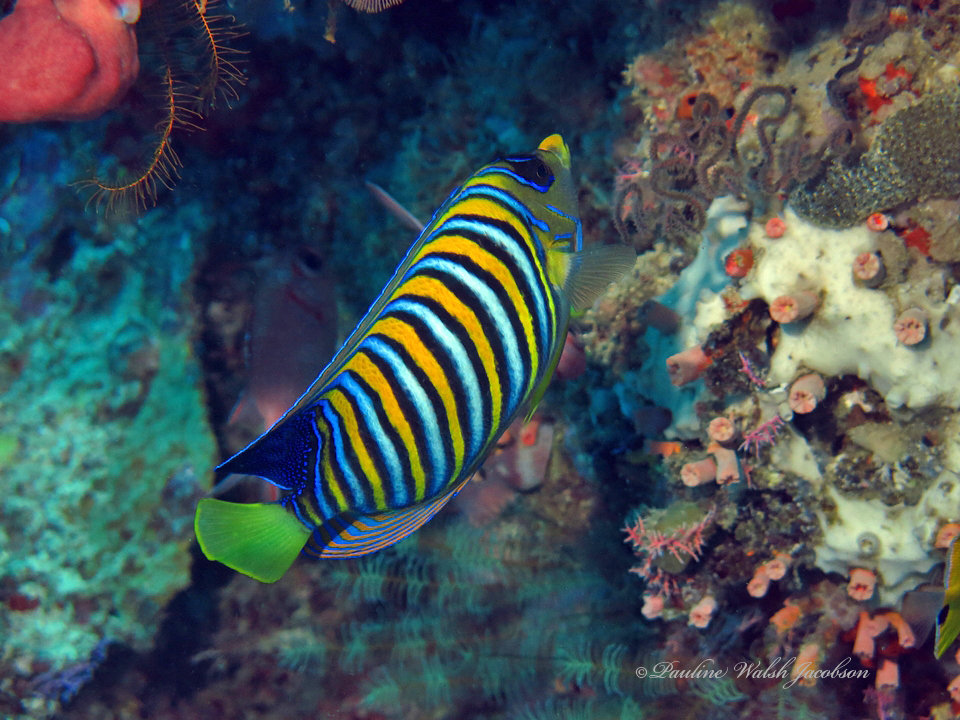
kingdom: Animalia
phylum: Chordata
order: Perciformes
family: Pomacanthidae
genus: Pygoplites
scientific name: Pygoplites diacanthus
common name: Regal angelfish
